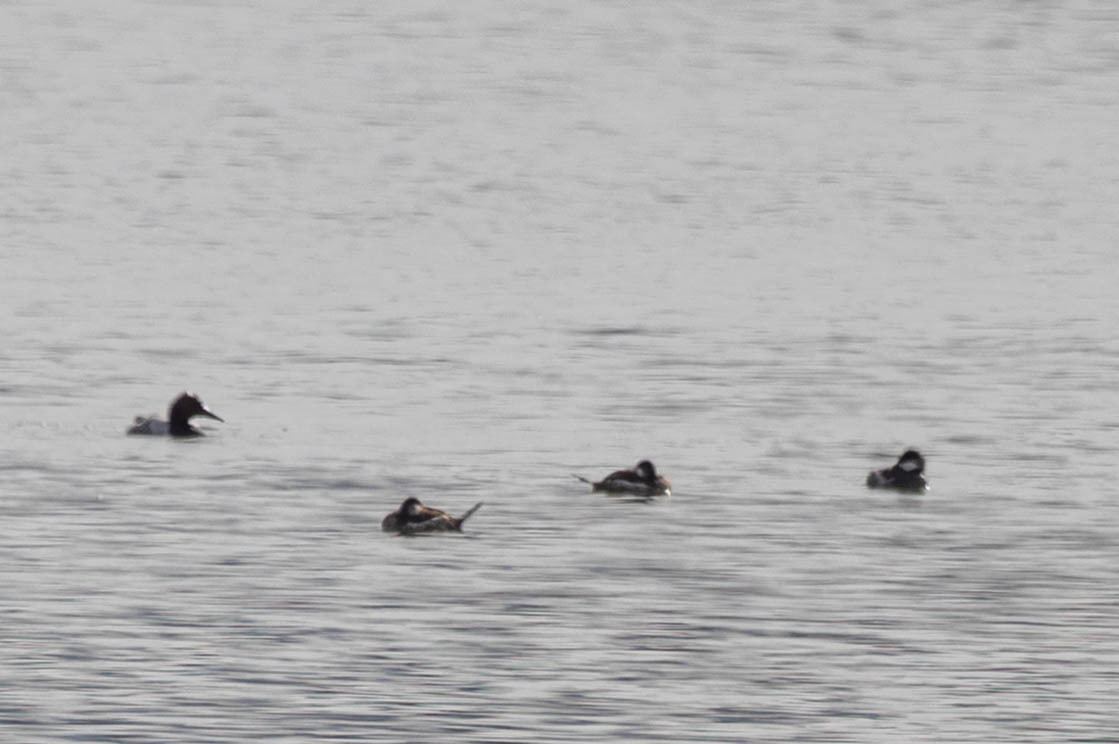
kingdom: Animalia
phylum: Chordata
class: Aves
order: Anseriformes
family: Anatidae
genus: Oxyura
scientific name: Oxyura jamaicensis
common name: Ruddy duck
